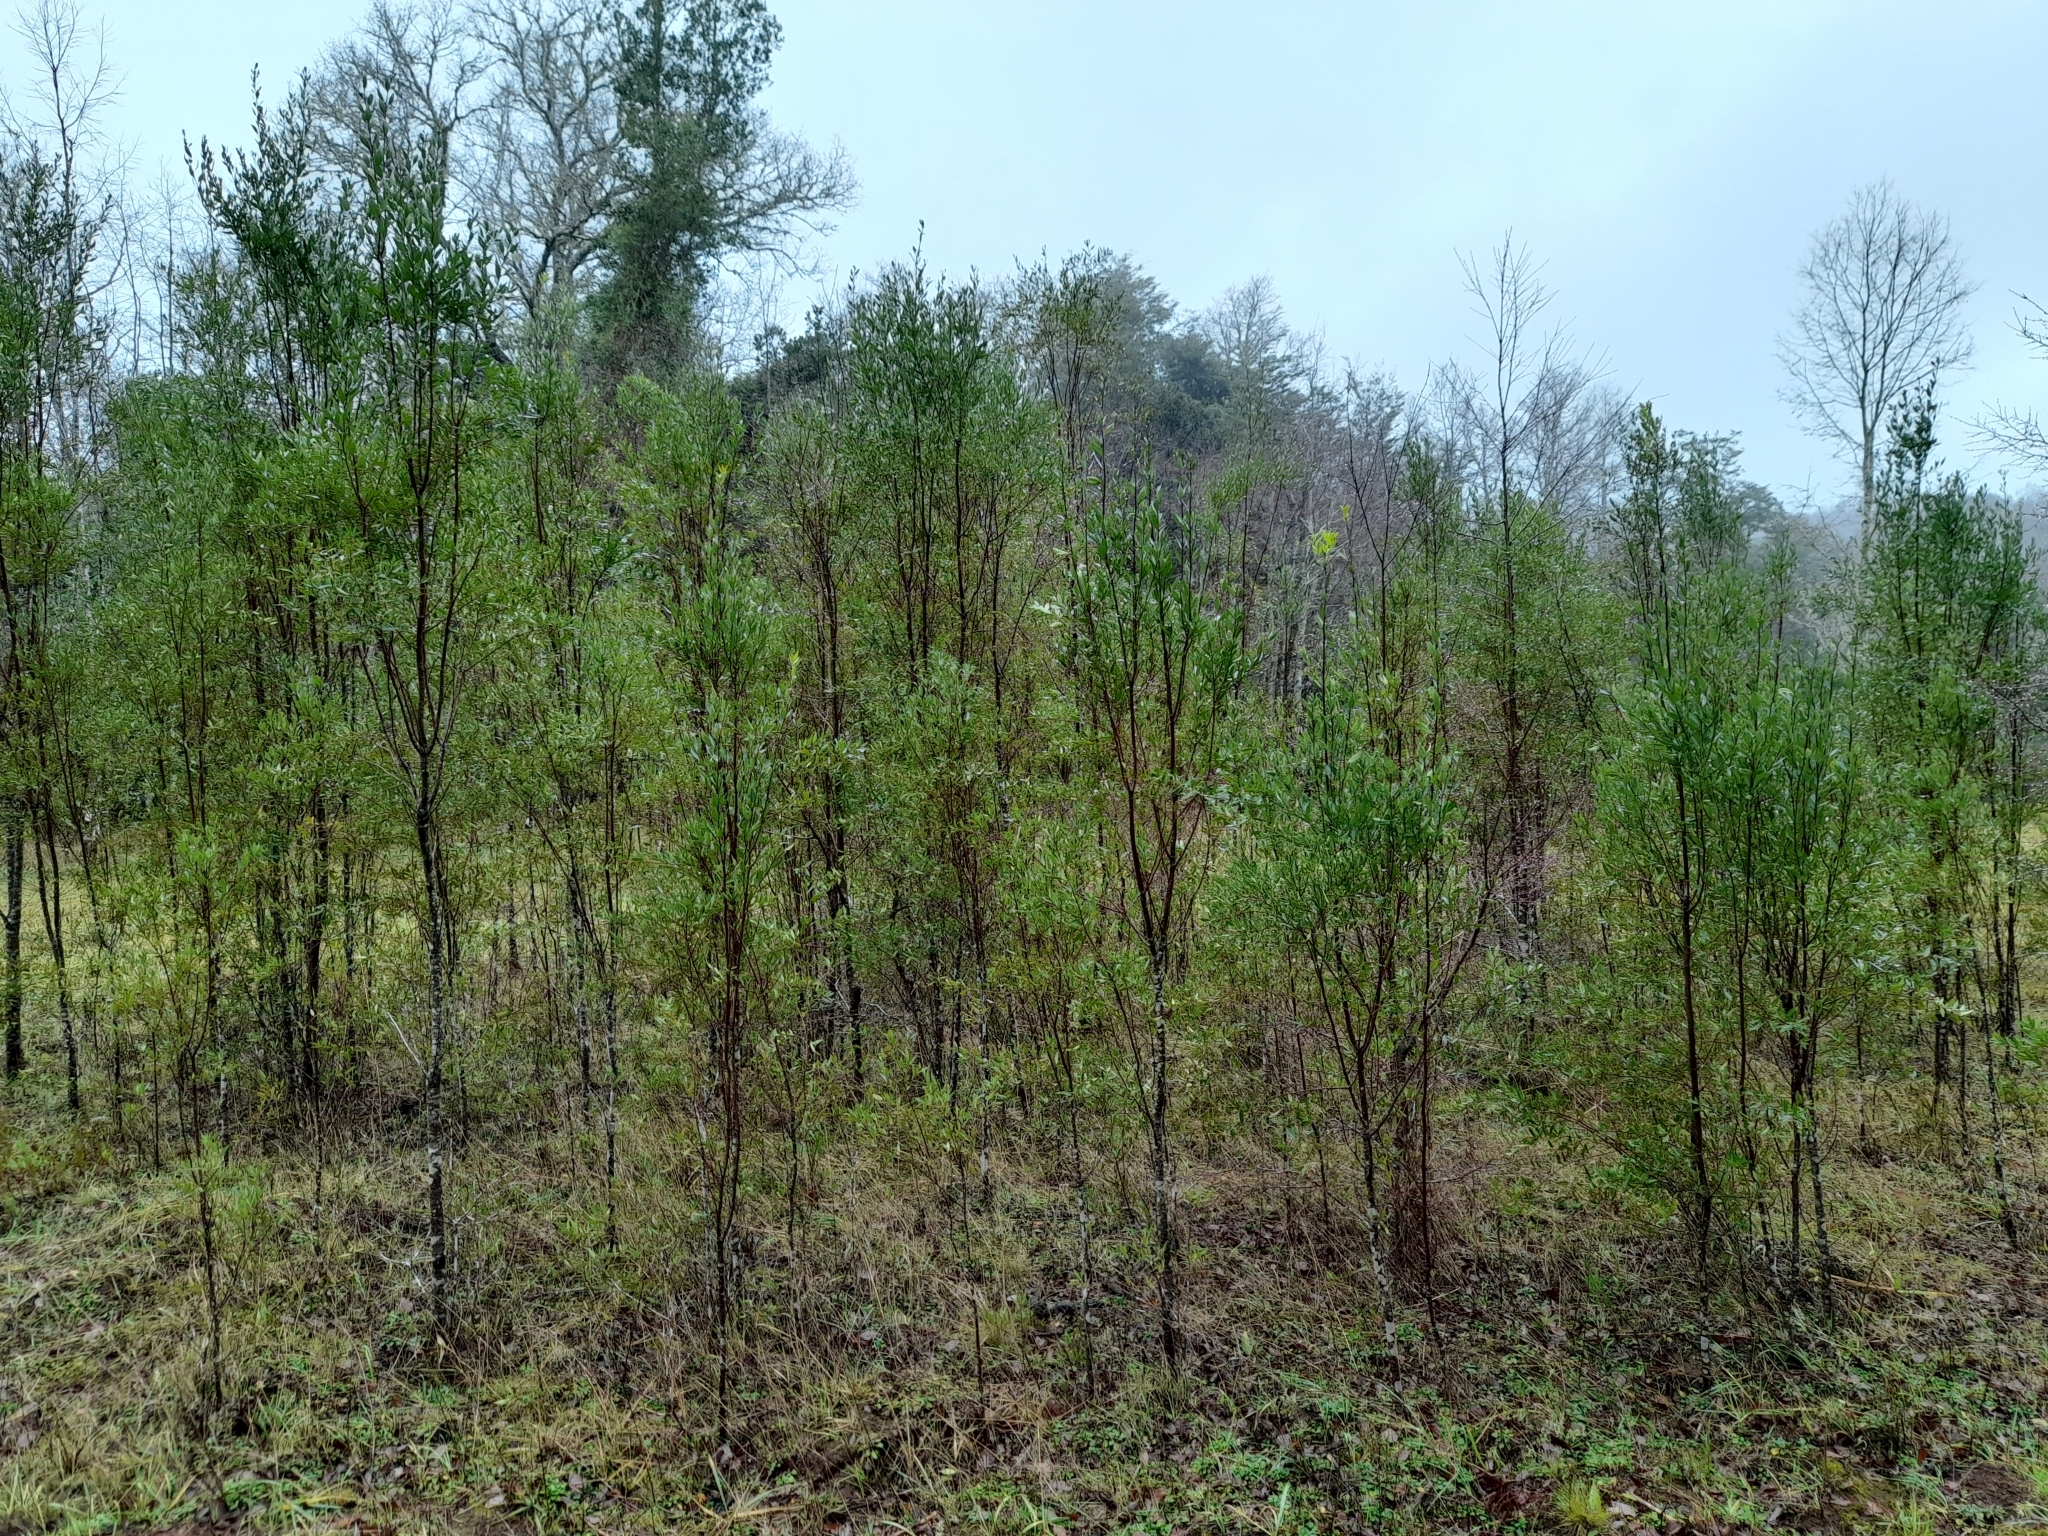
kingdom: Plantae
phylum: Tracheophyta
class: Magnoliopsida
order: Celastrales
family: Celastraceae
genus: Maytenus
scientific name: Maytenus boaria
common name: Mayten
